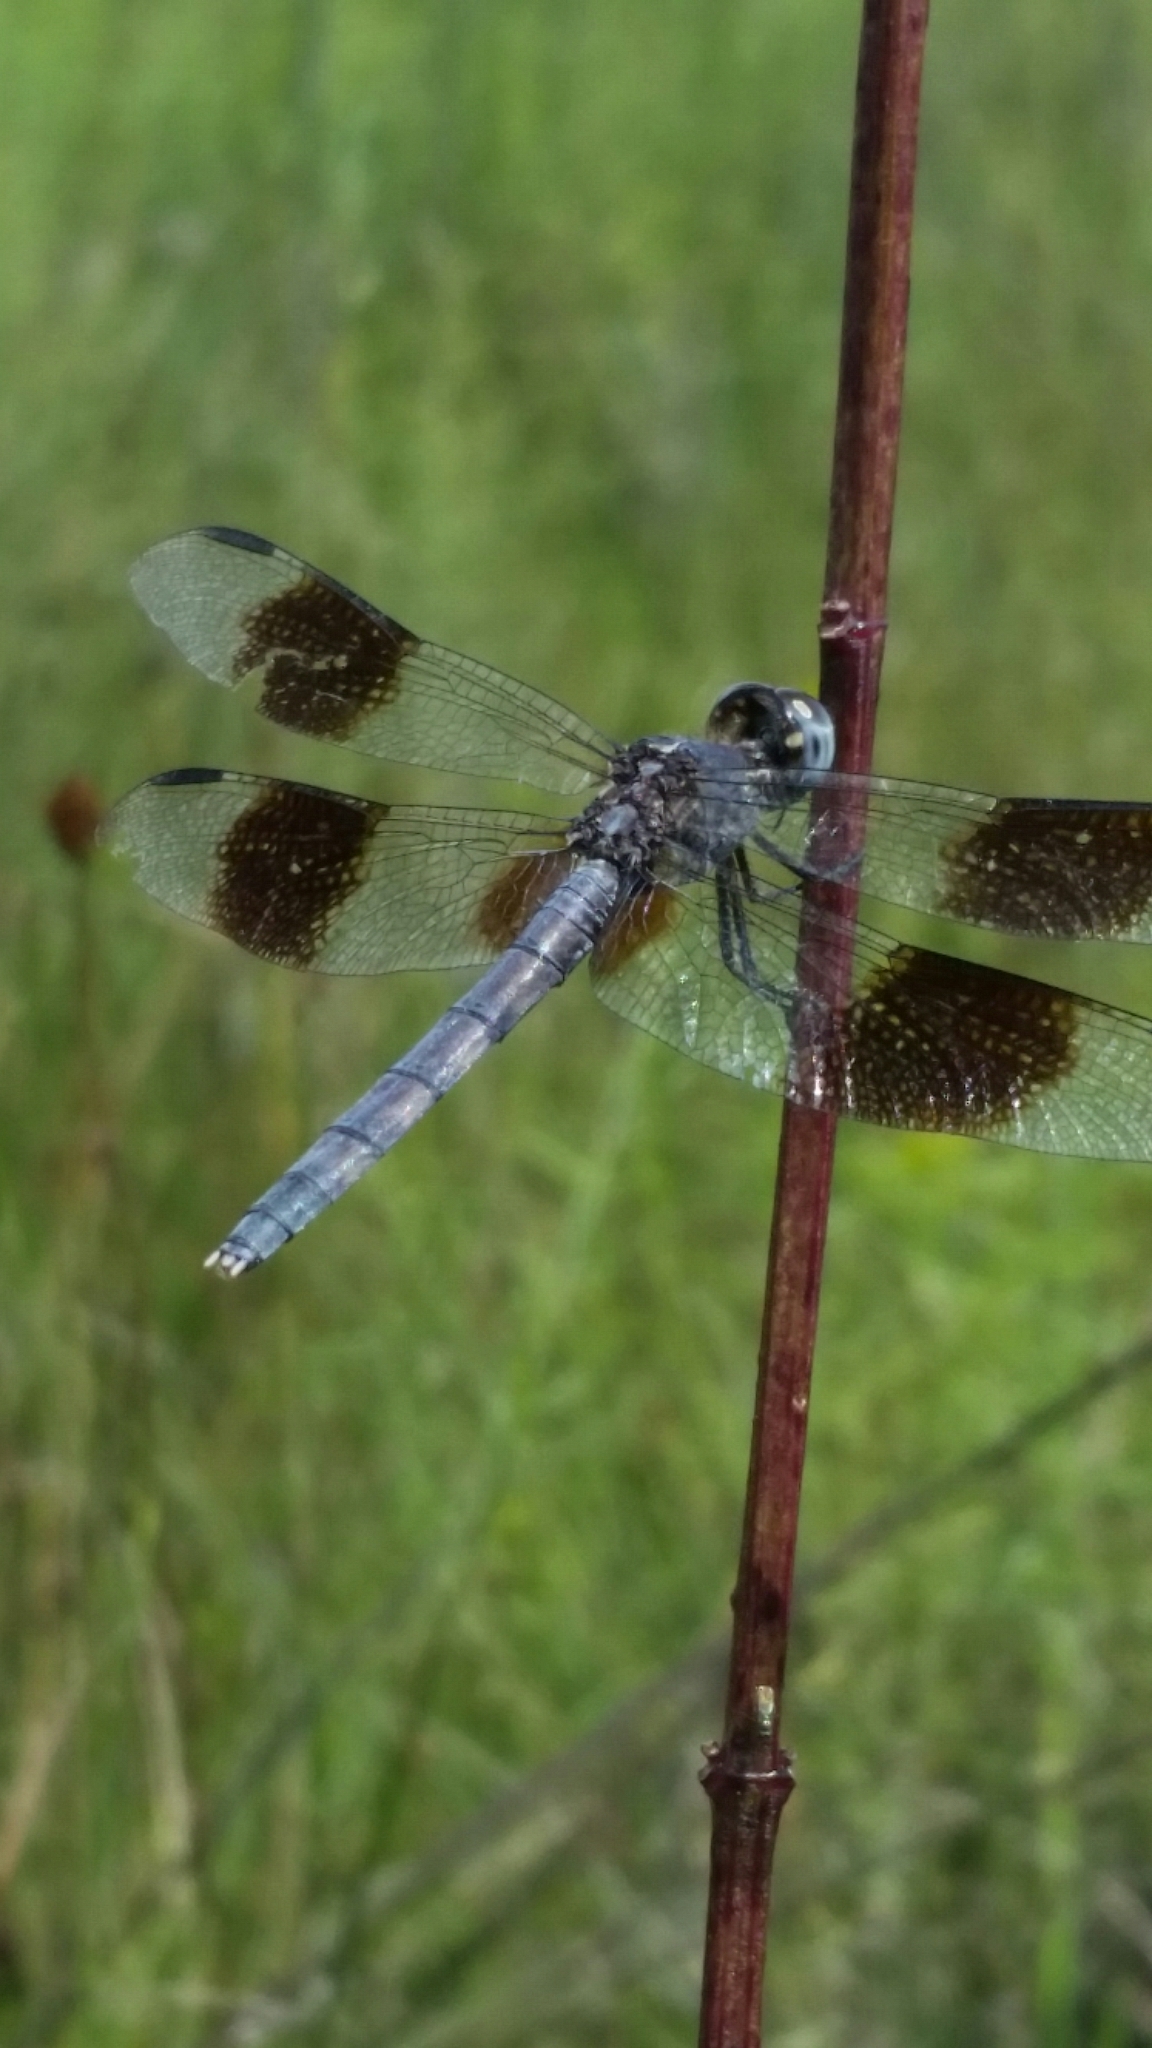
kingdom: Animalia
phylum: Arthropoda
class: Insecta
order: Odonata
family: Libellulidae
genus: Erythrodiplax
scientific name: Erythrodiplax umbrata
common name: Band-winged dragonlet
